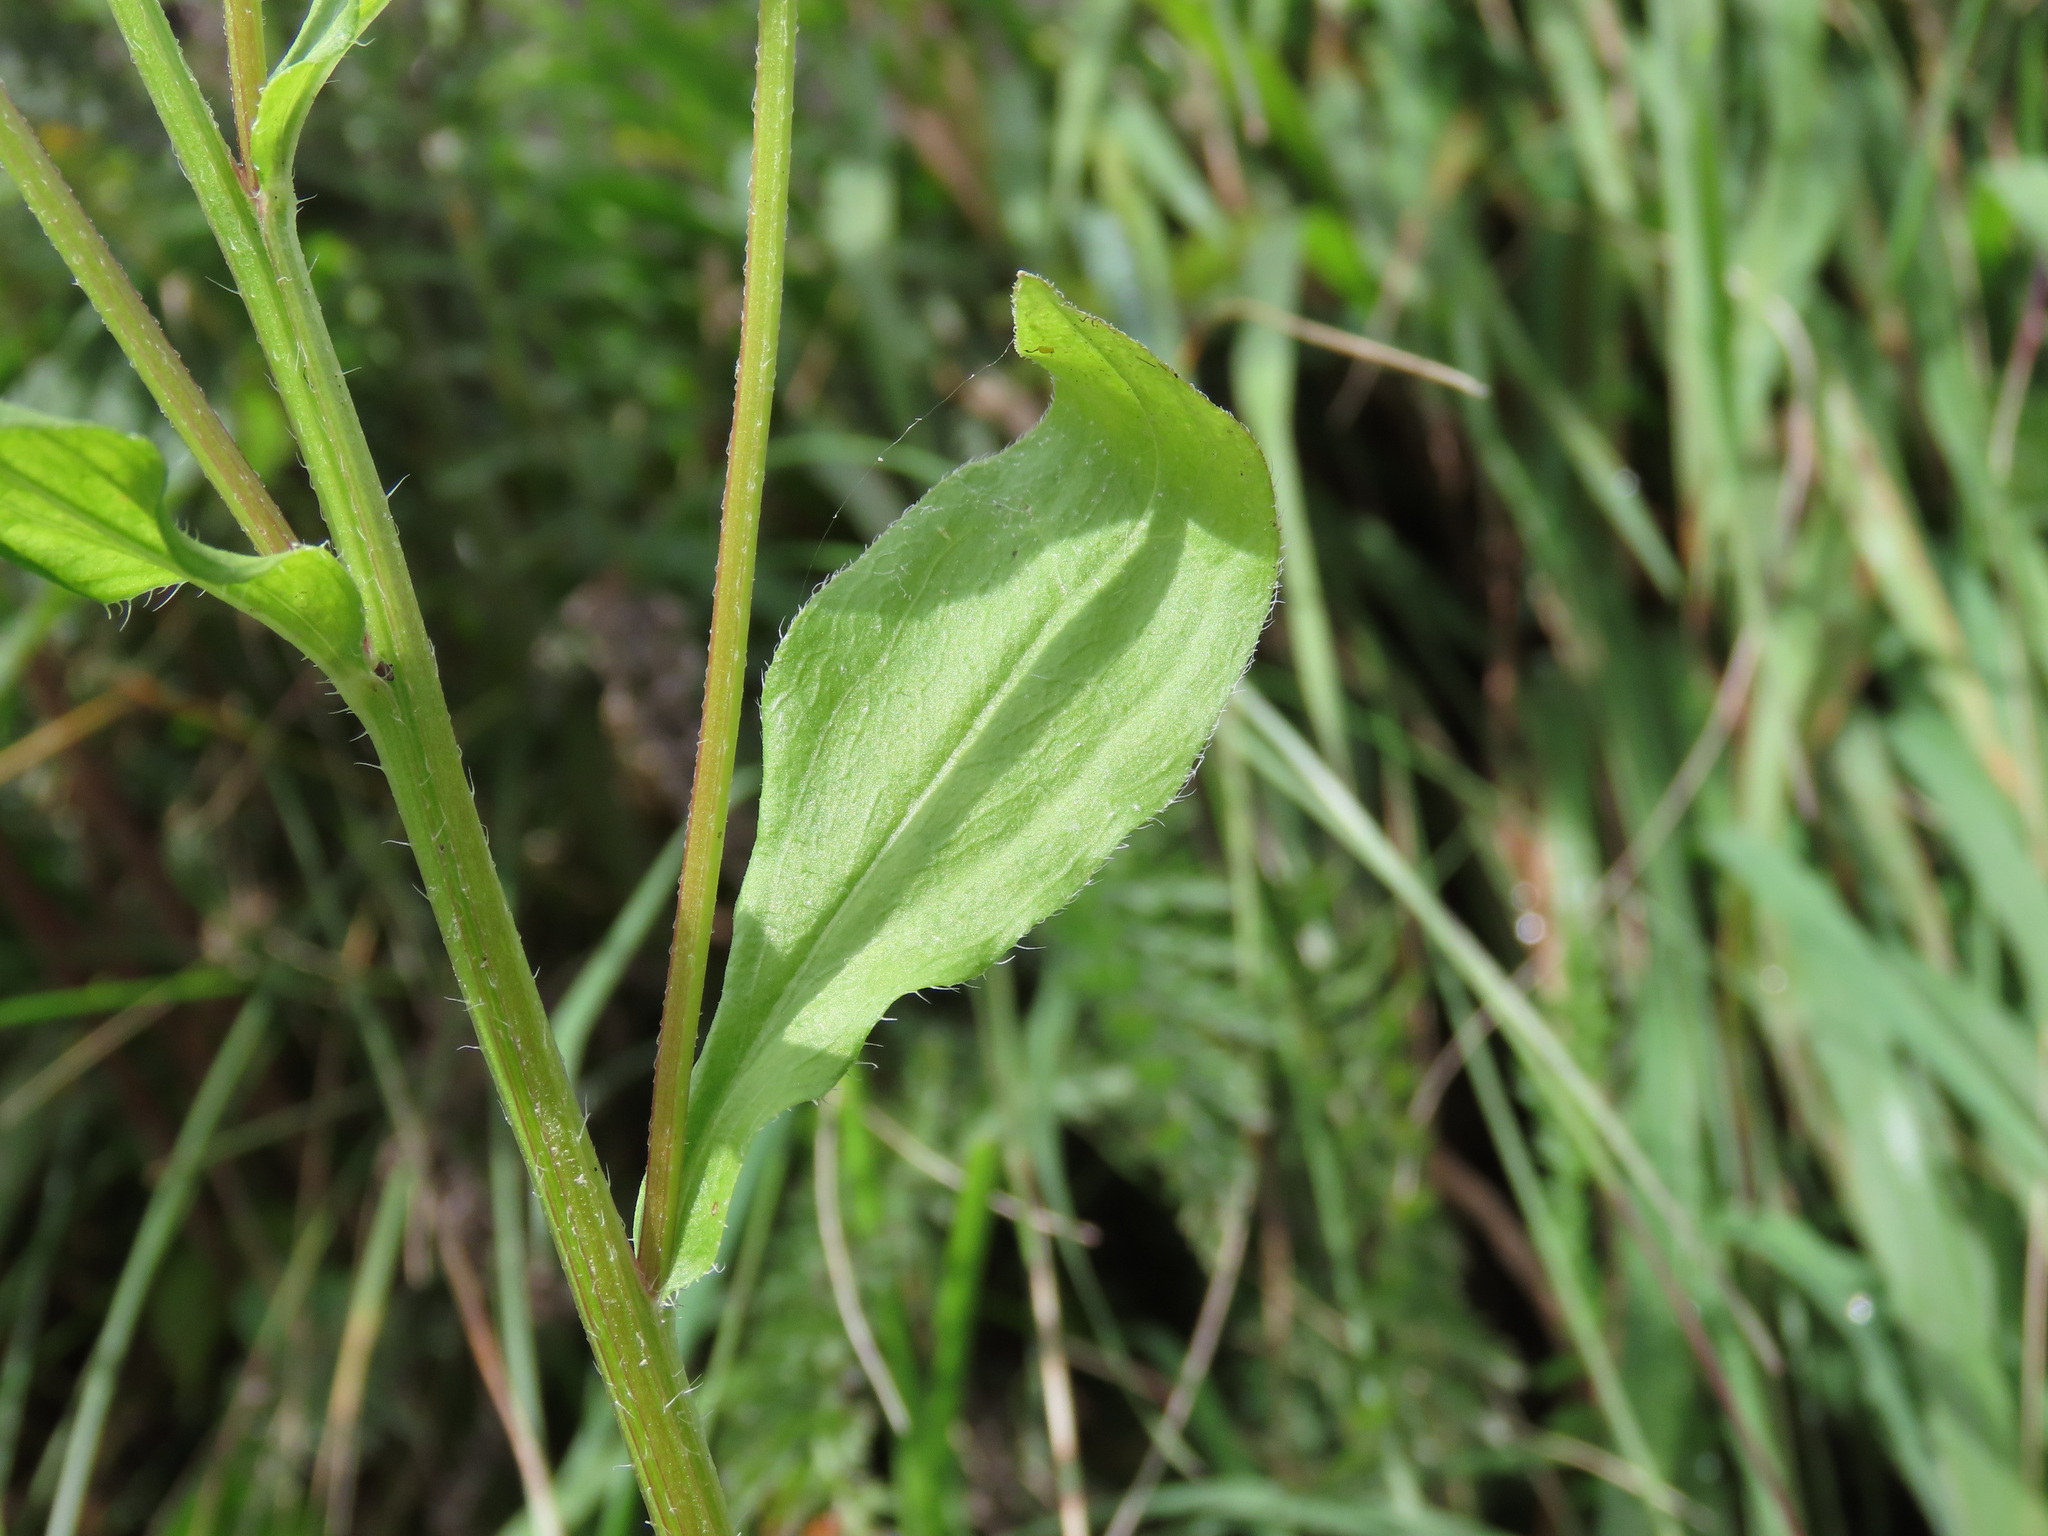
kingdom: Plantae
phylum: Tracheophyta
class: Magnoliopsida
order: Asterales
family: Asteraceae
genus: Erigeron
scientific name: Erigeron annuus
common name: Tall fleabane
